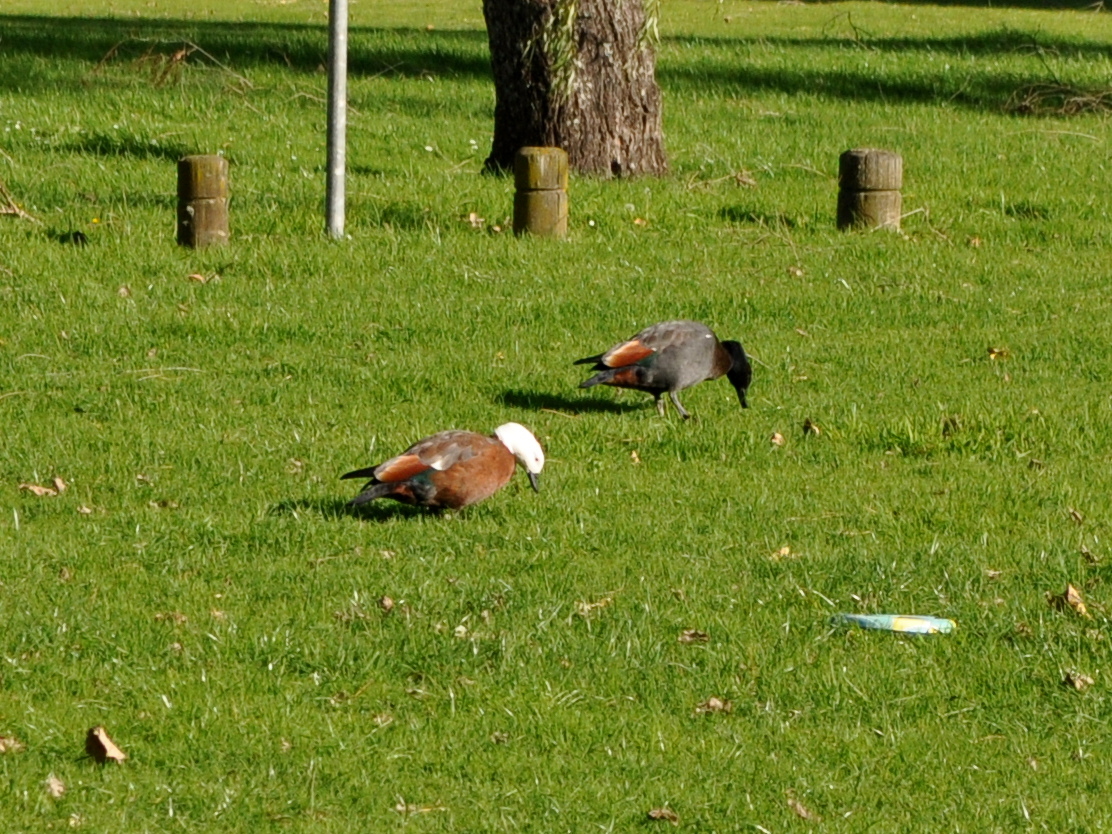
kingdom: Animalia
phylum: Chordata
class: Aves
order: Anseriformes
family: Anatidae
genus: Tadorna
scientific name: Tadorna variegata
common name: Paradise shelduck
